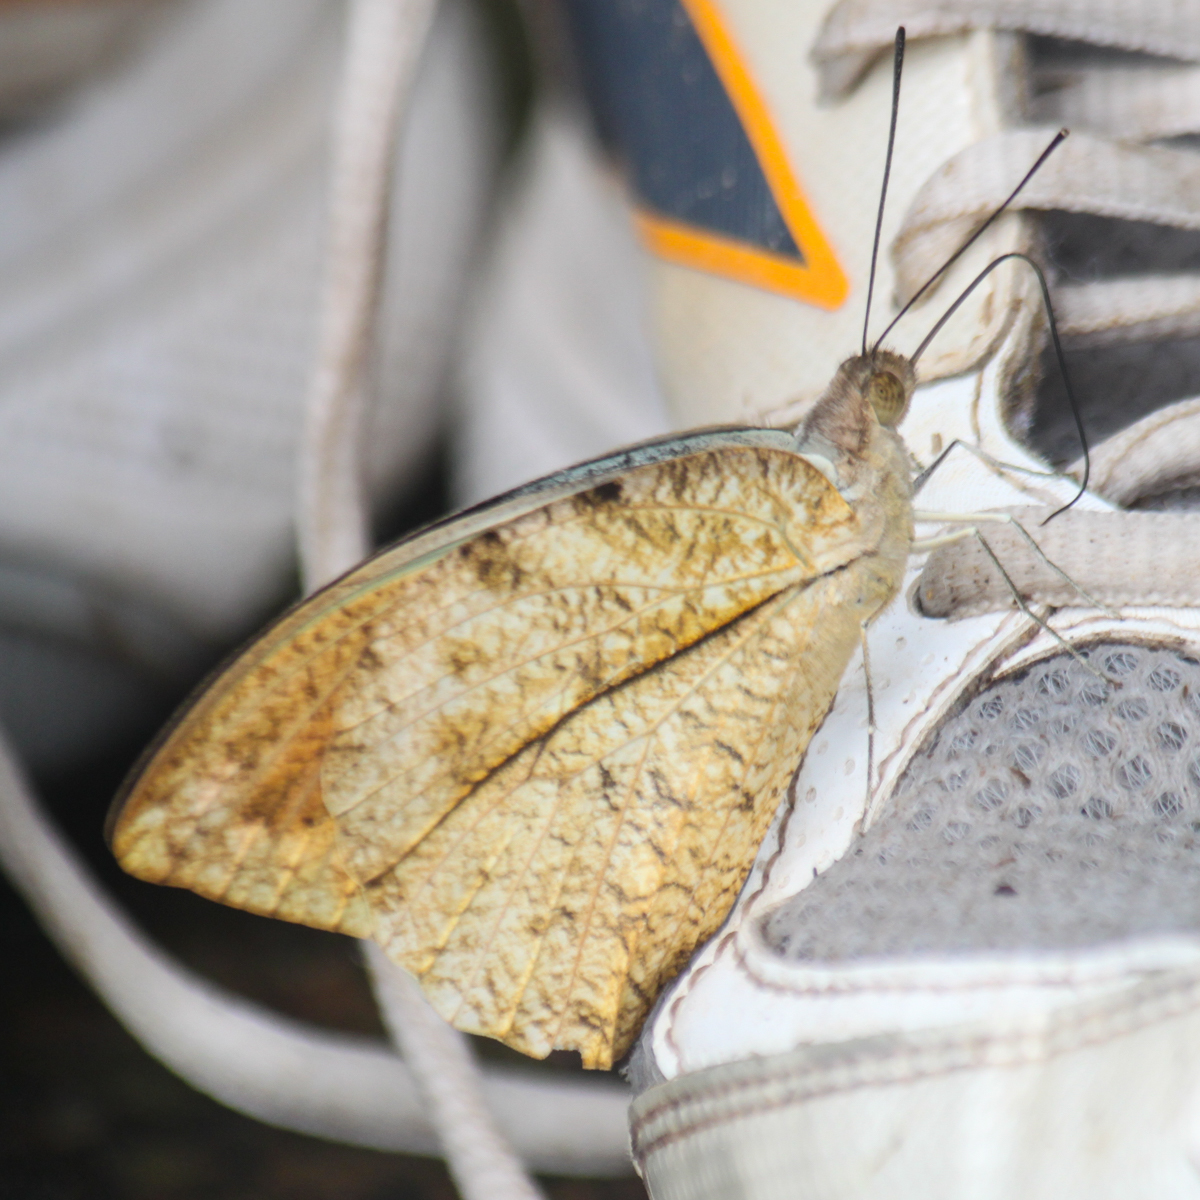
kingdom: Animalia
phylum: Arthropoda
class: Insecta
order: Lepidoptera
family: Pieridae
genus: Hebomoia
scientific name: Hebomoia glaucippe
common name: Great orange tip
